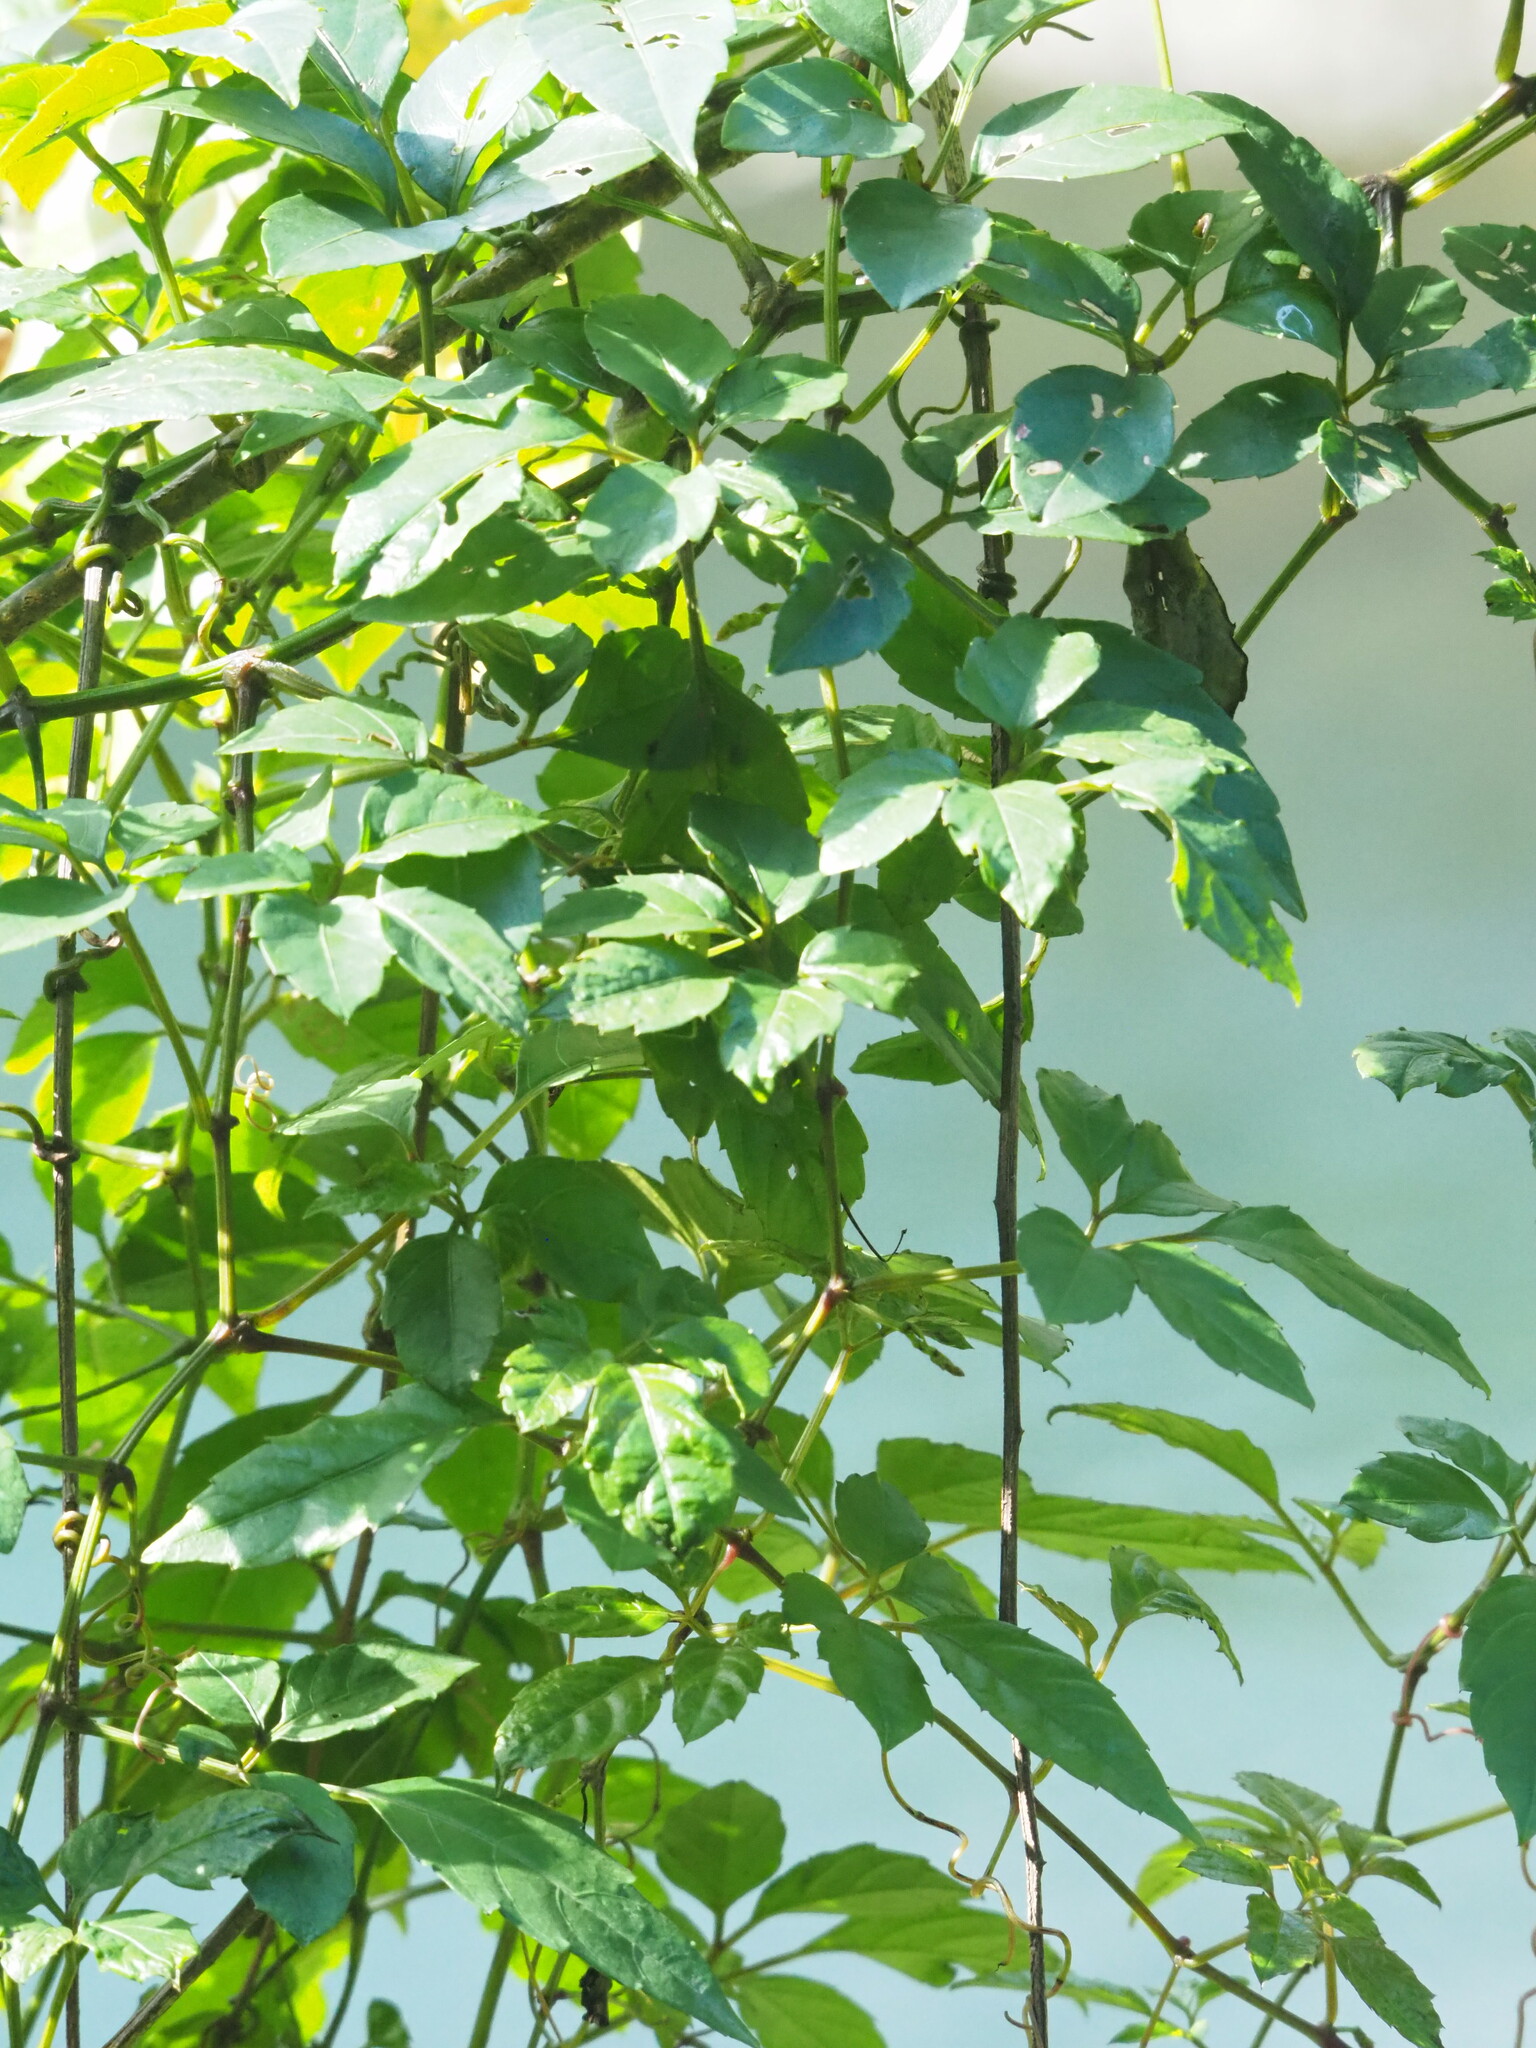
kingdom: Plantae
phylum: Tracheophyta
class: Magnoliopsida
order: Vitales
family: Vitaceae
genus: Causonis
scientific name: Causonis corniculata
